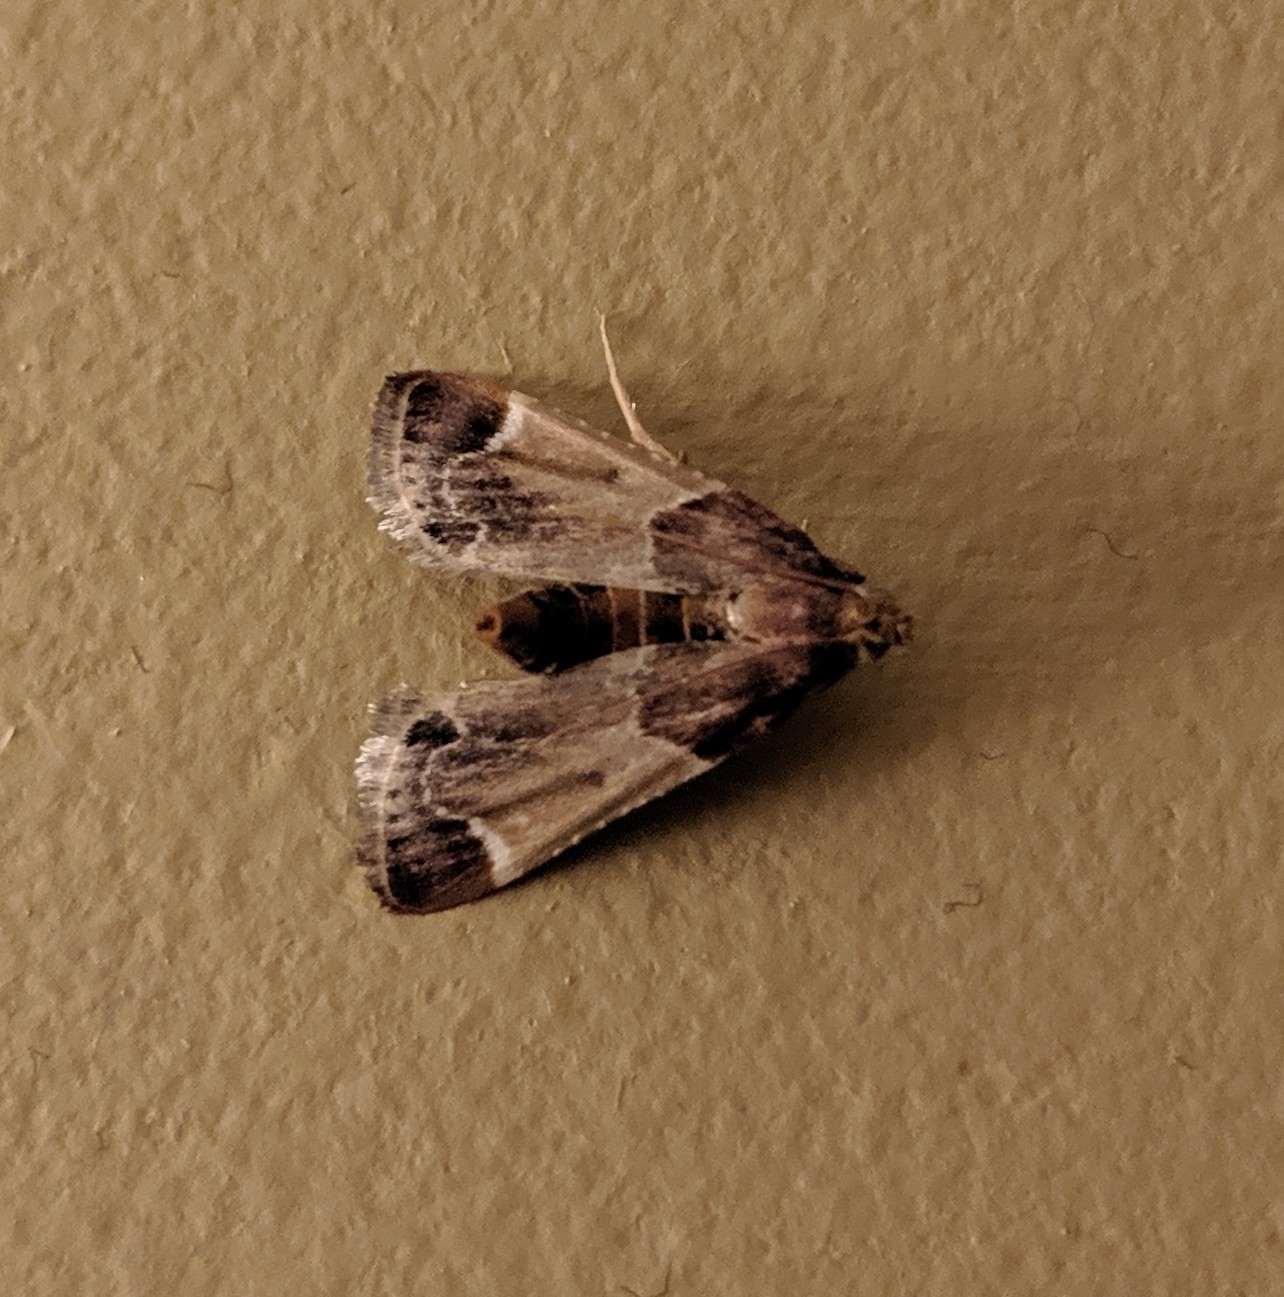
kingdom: Animalia
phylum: Arthropoda
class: Insecta
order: Lepidoptera
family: Pyralidae
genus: Pyralis
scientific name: Pyralis farinalis
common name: Meal moth
